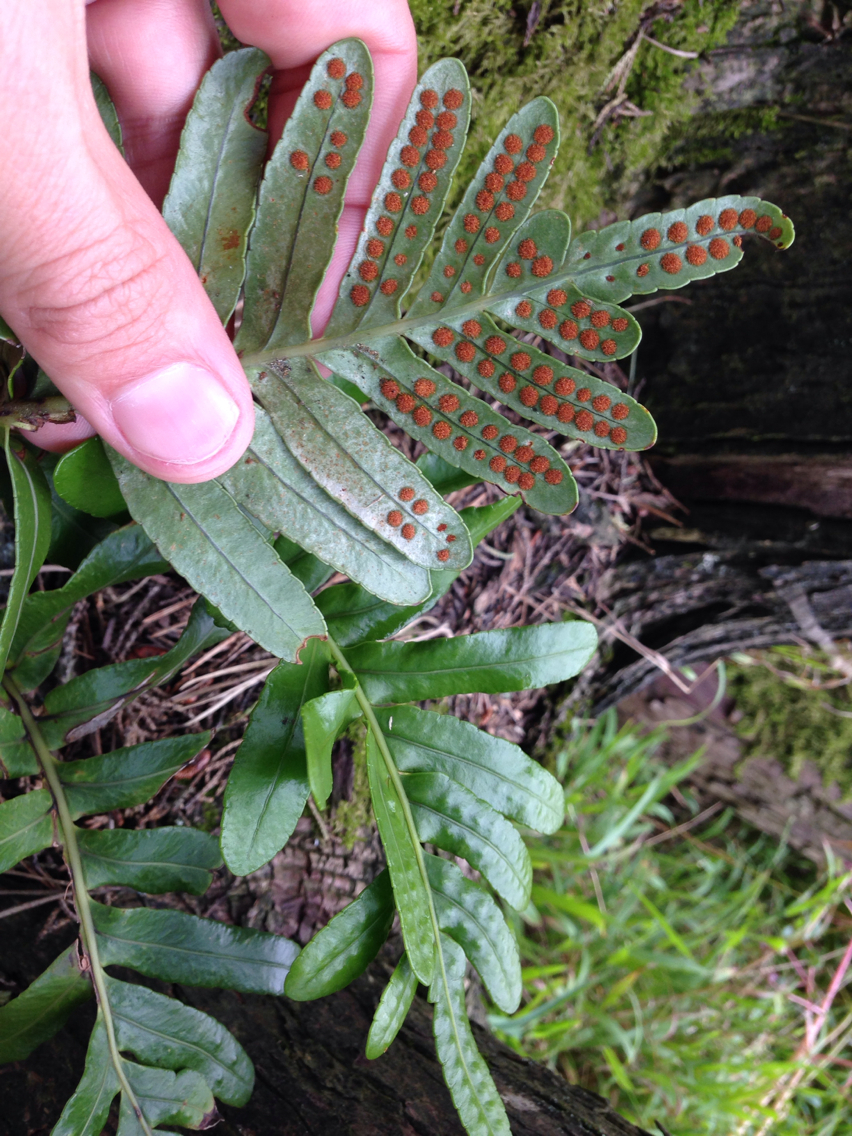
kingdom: Plantae
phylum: Tracheophyta
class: Polypodiopsida
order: Polypodiales
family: Polypodiaceae
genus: Polypodium
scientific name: Polypodium scouleri
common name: Scouler's polypody
